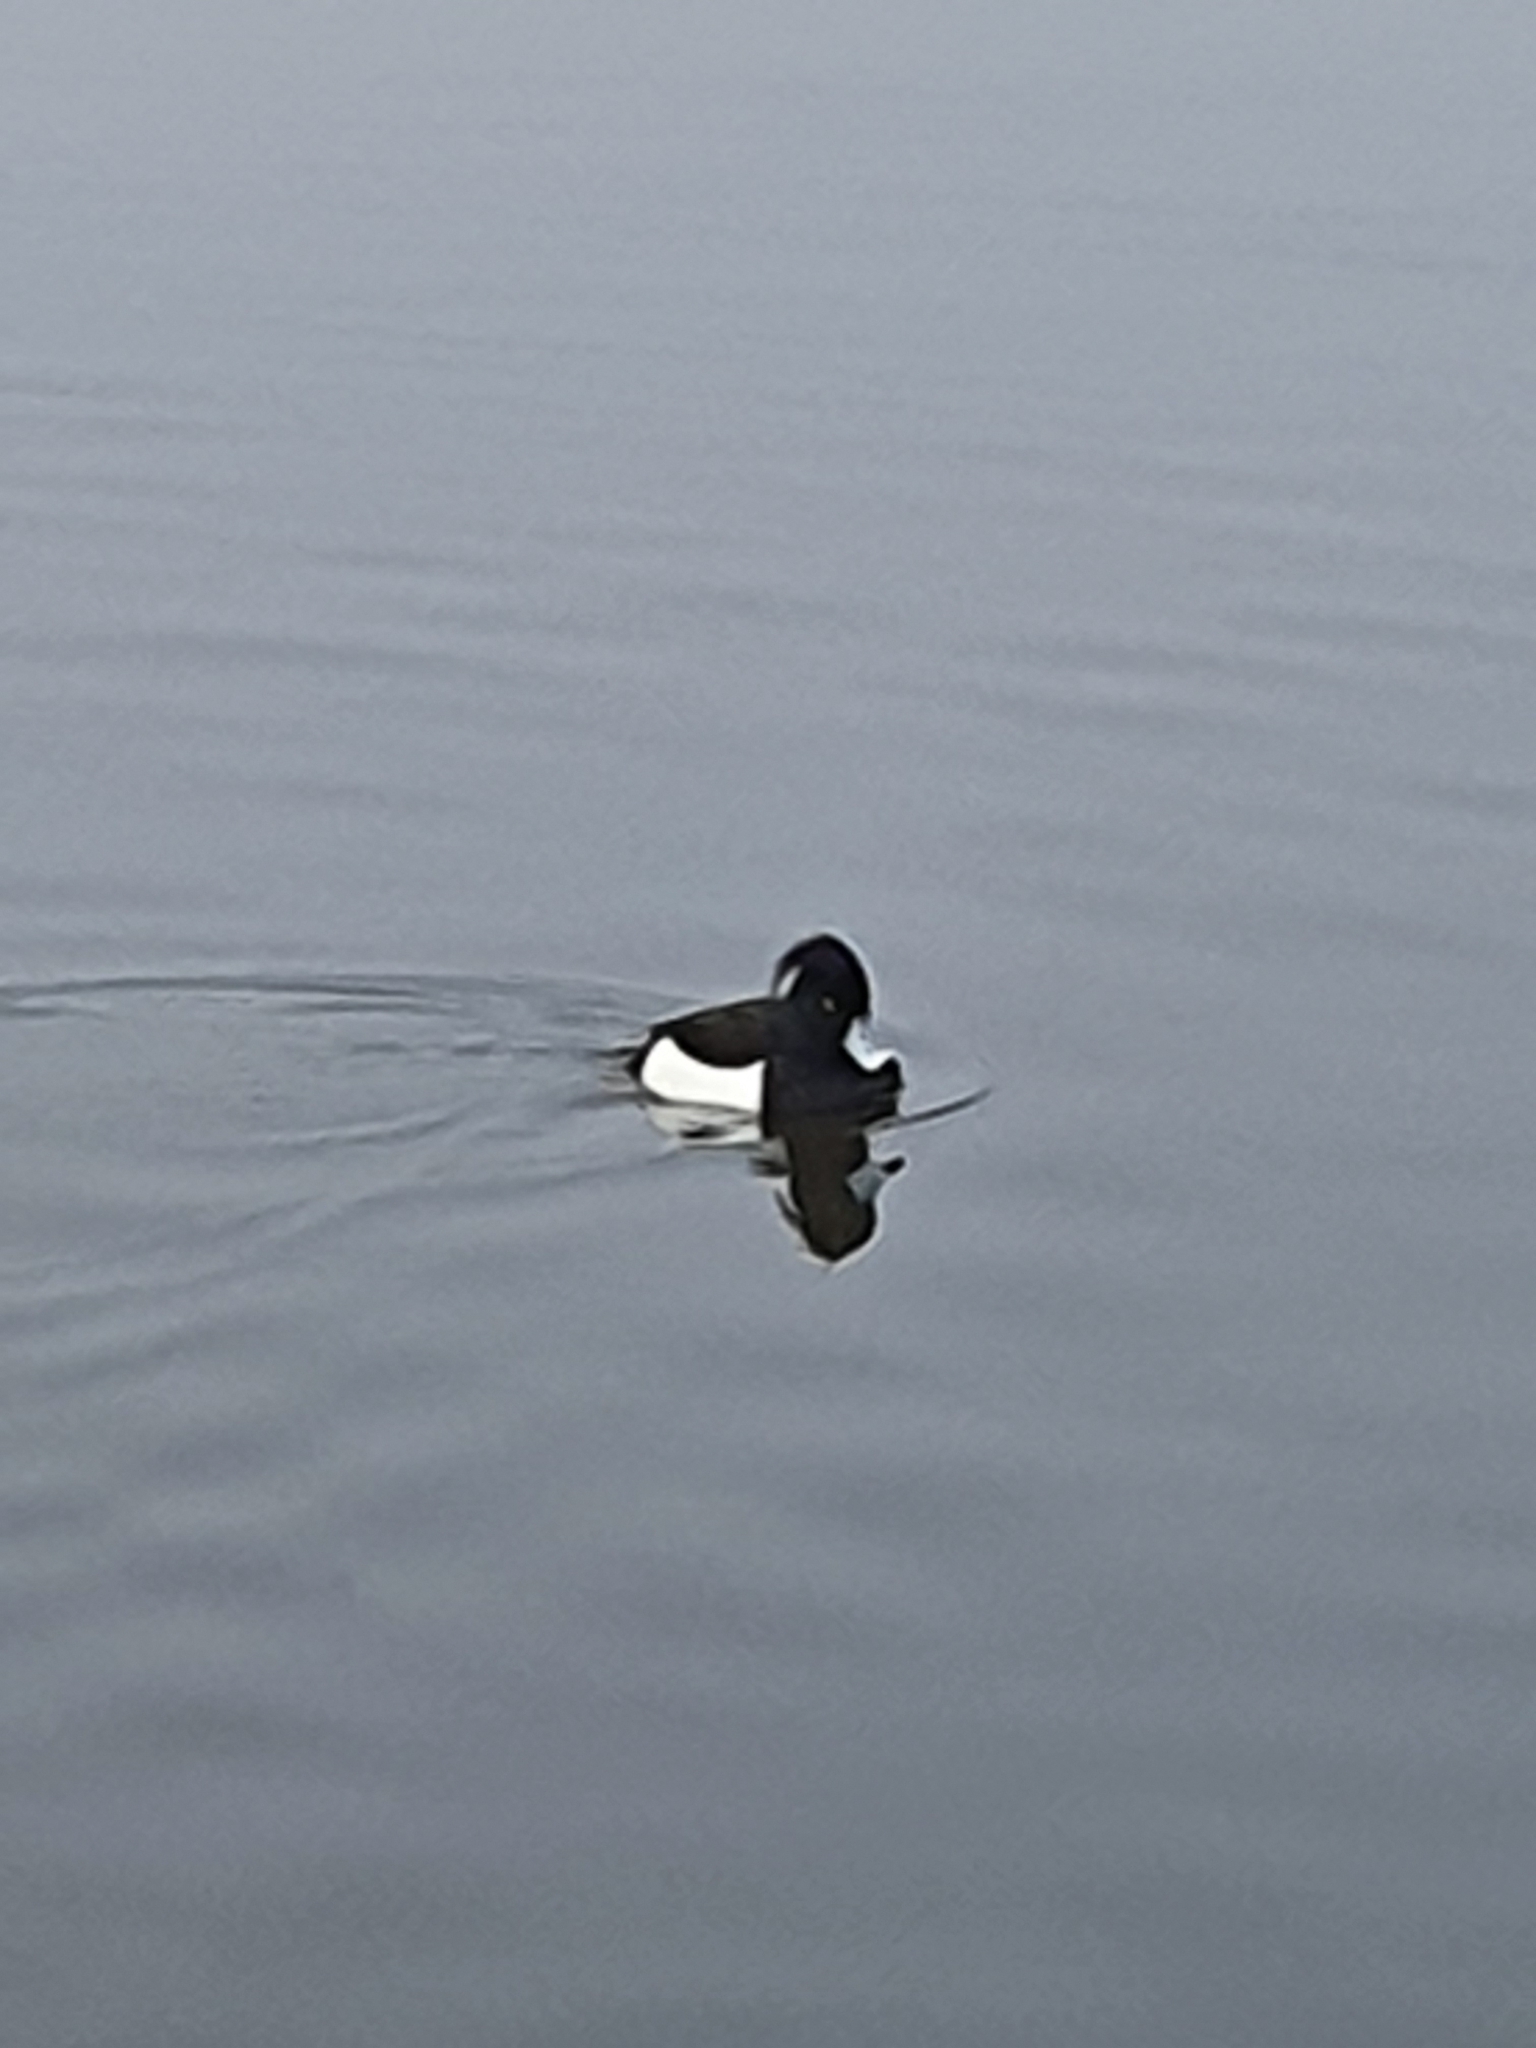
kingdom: Animalia
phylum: Chordata
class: Aves
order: Anseriformes
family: Anatidae
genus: Aythya
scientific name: Aythya fuligula
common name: Tufted duck
